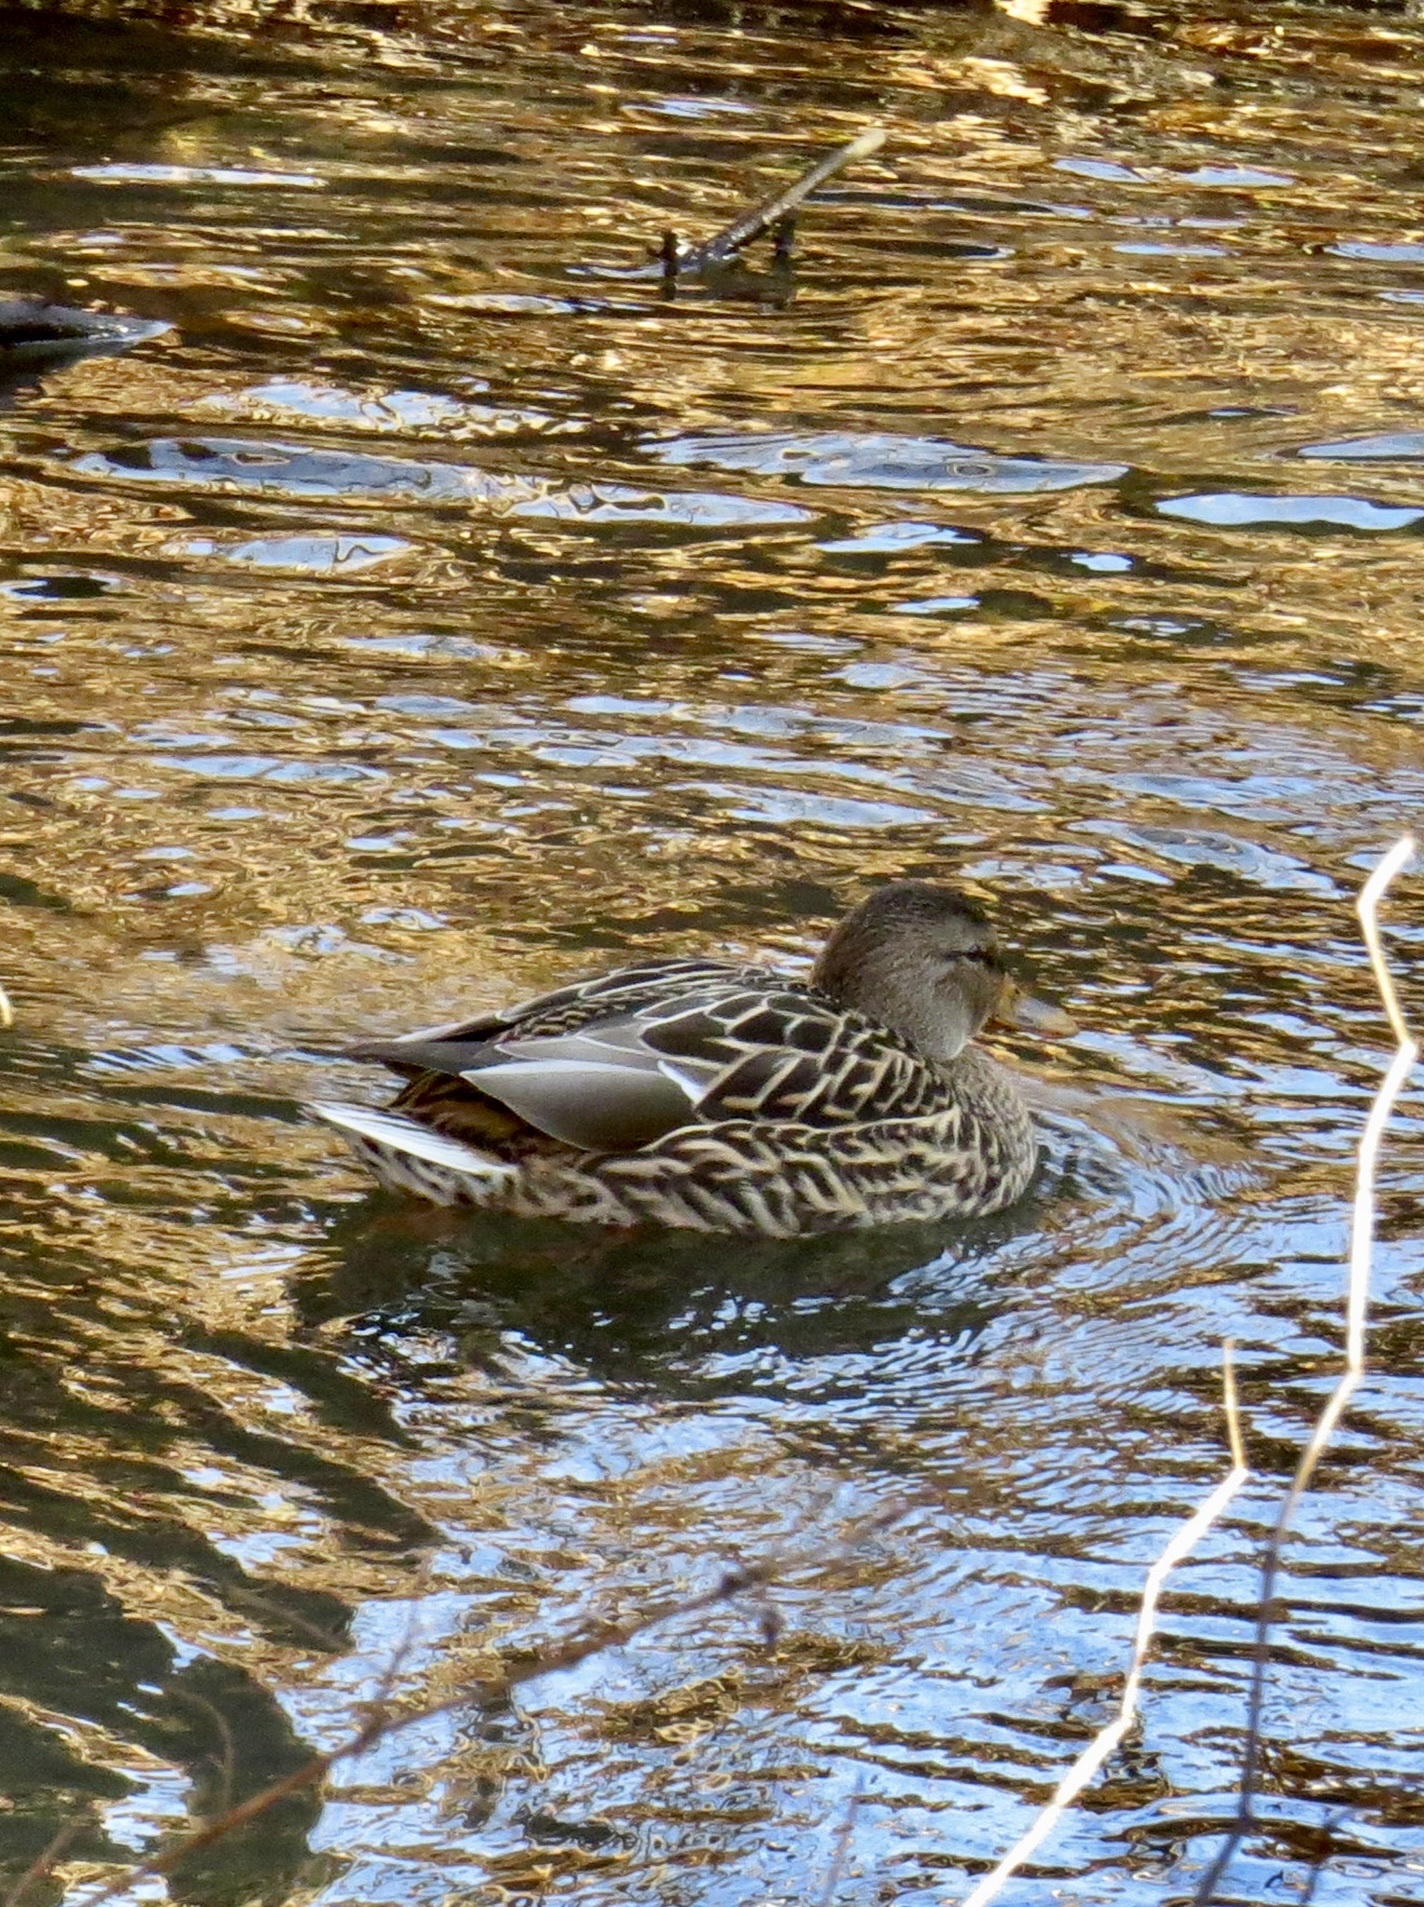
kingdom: Animalia
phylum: Chordata
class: Aves
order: Anseriformes
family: Anatidae
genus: Anas
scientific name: Anas platyrhynchos
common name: Mallard
